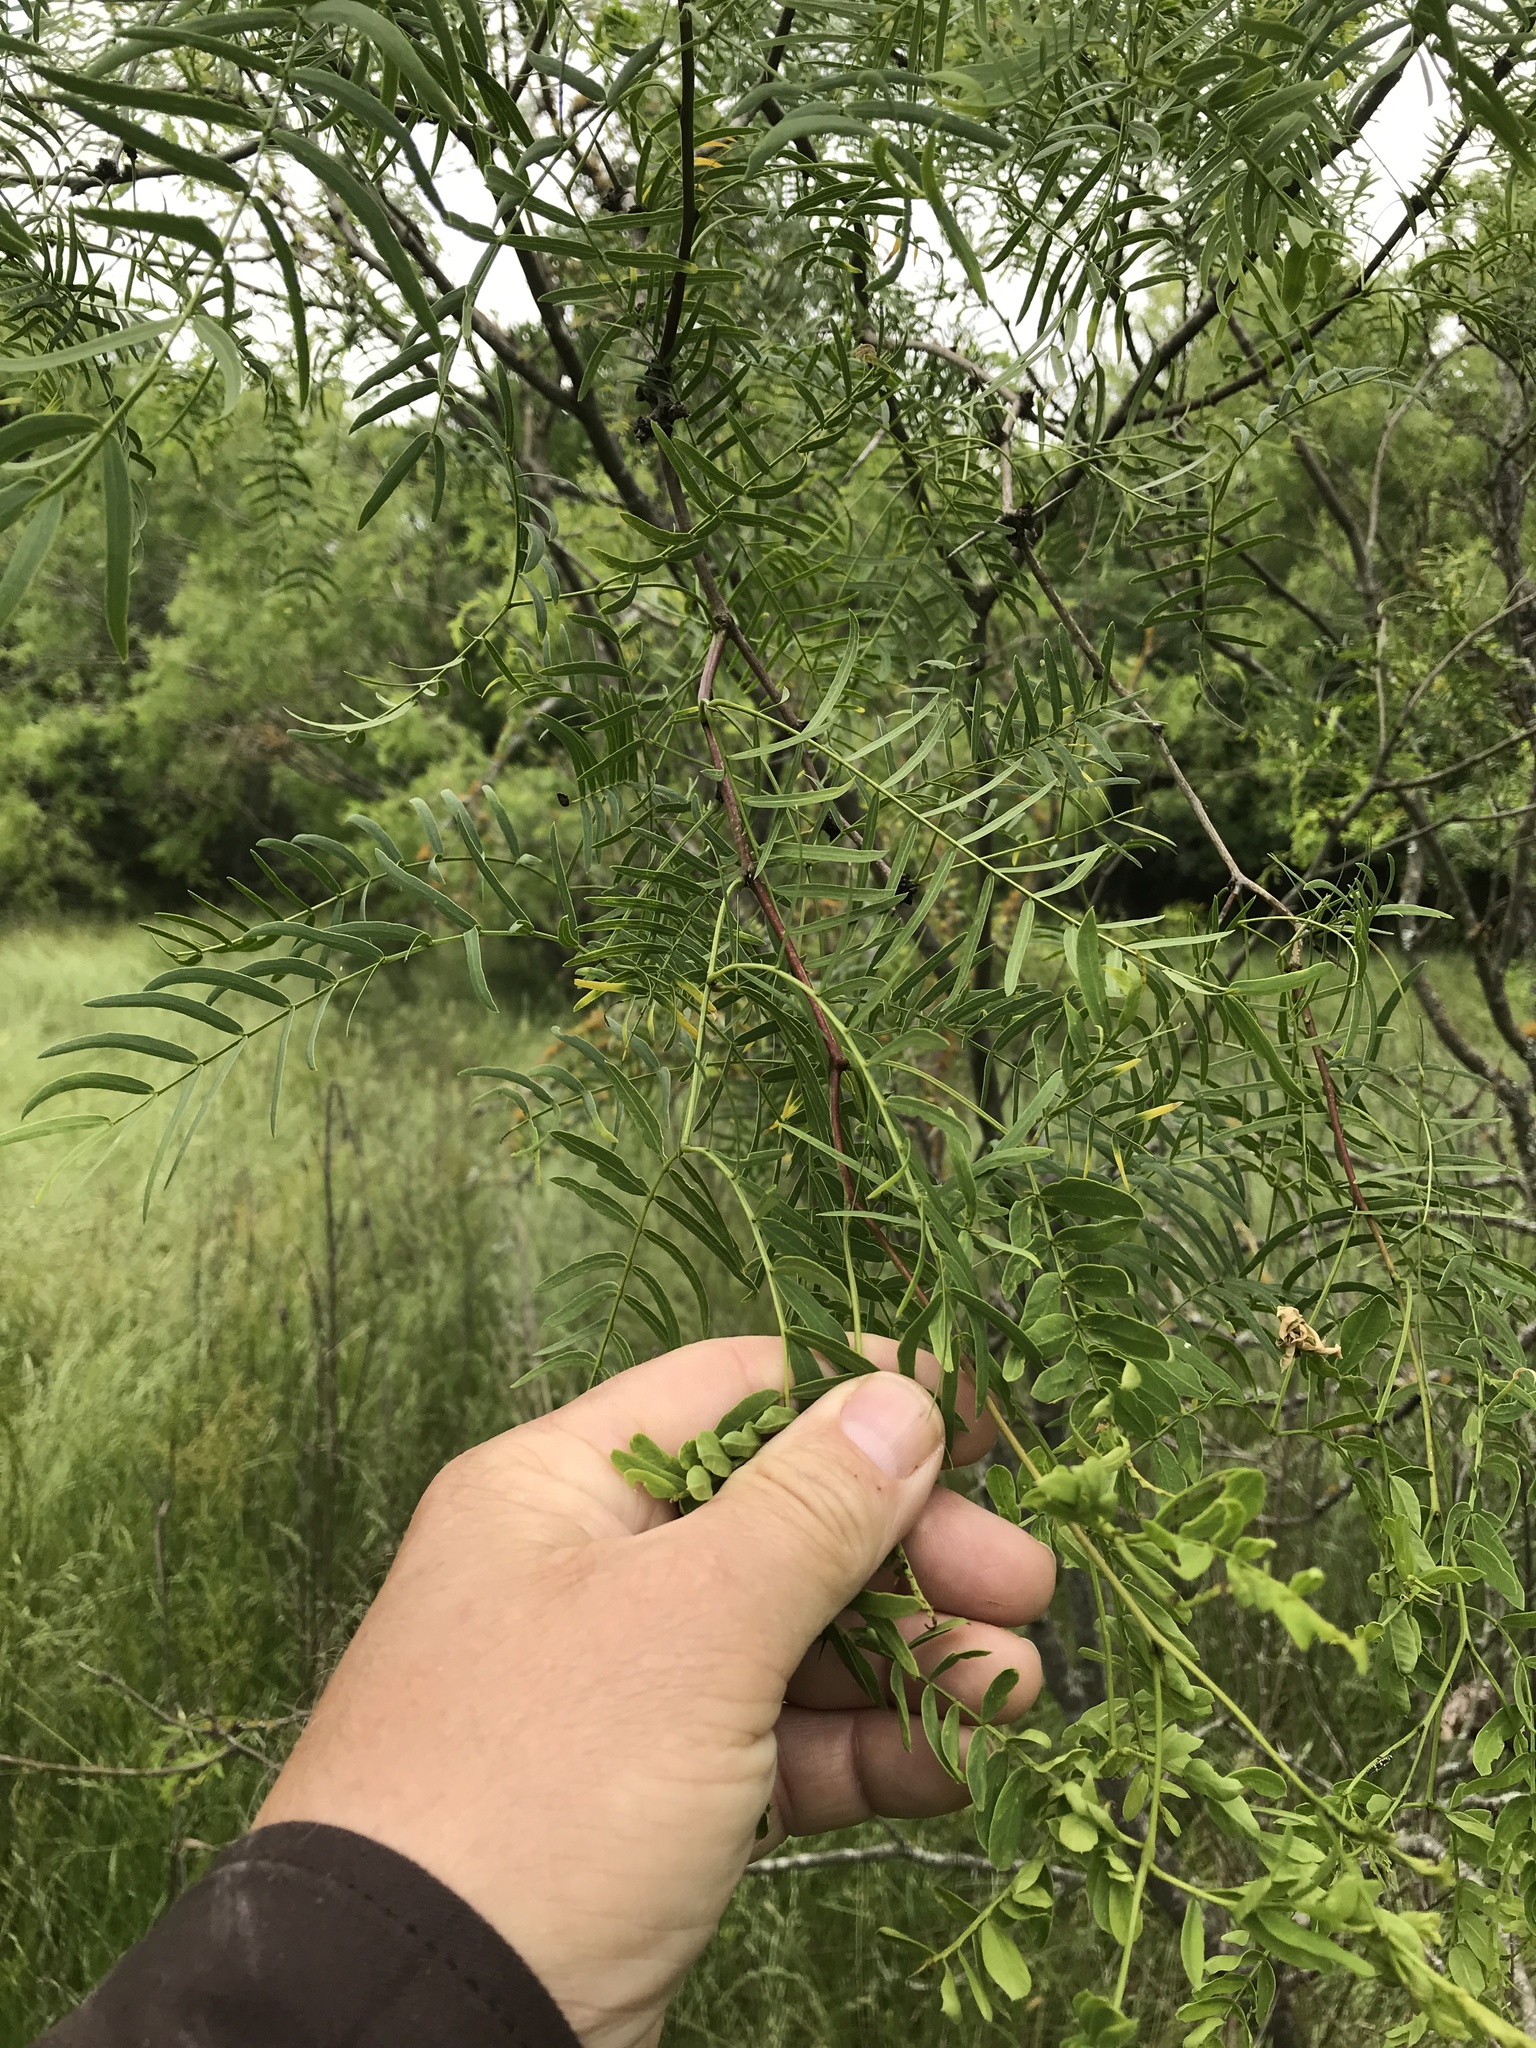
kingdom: Plantae
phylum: Tracheophyta
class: Magnoliopsida
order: Fabales
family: Fabaceae
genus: Prosopis
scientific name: Prosopis glandulosa
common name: Honey mesquite
